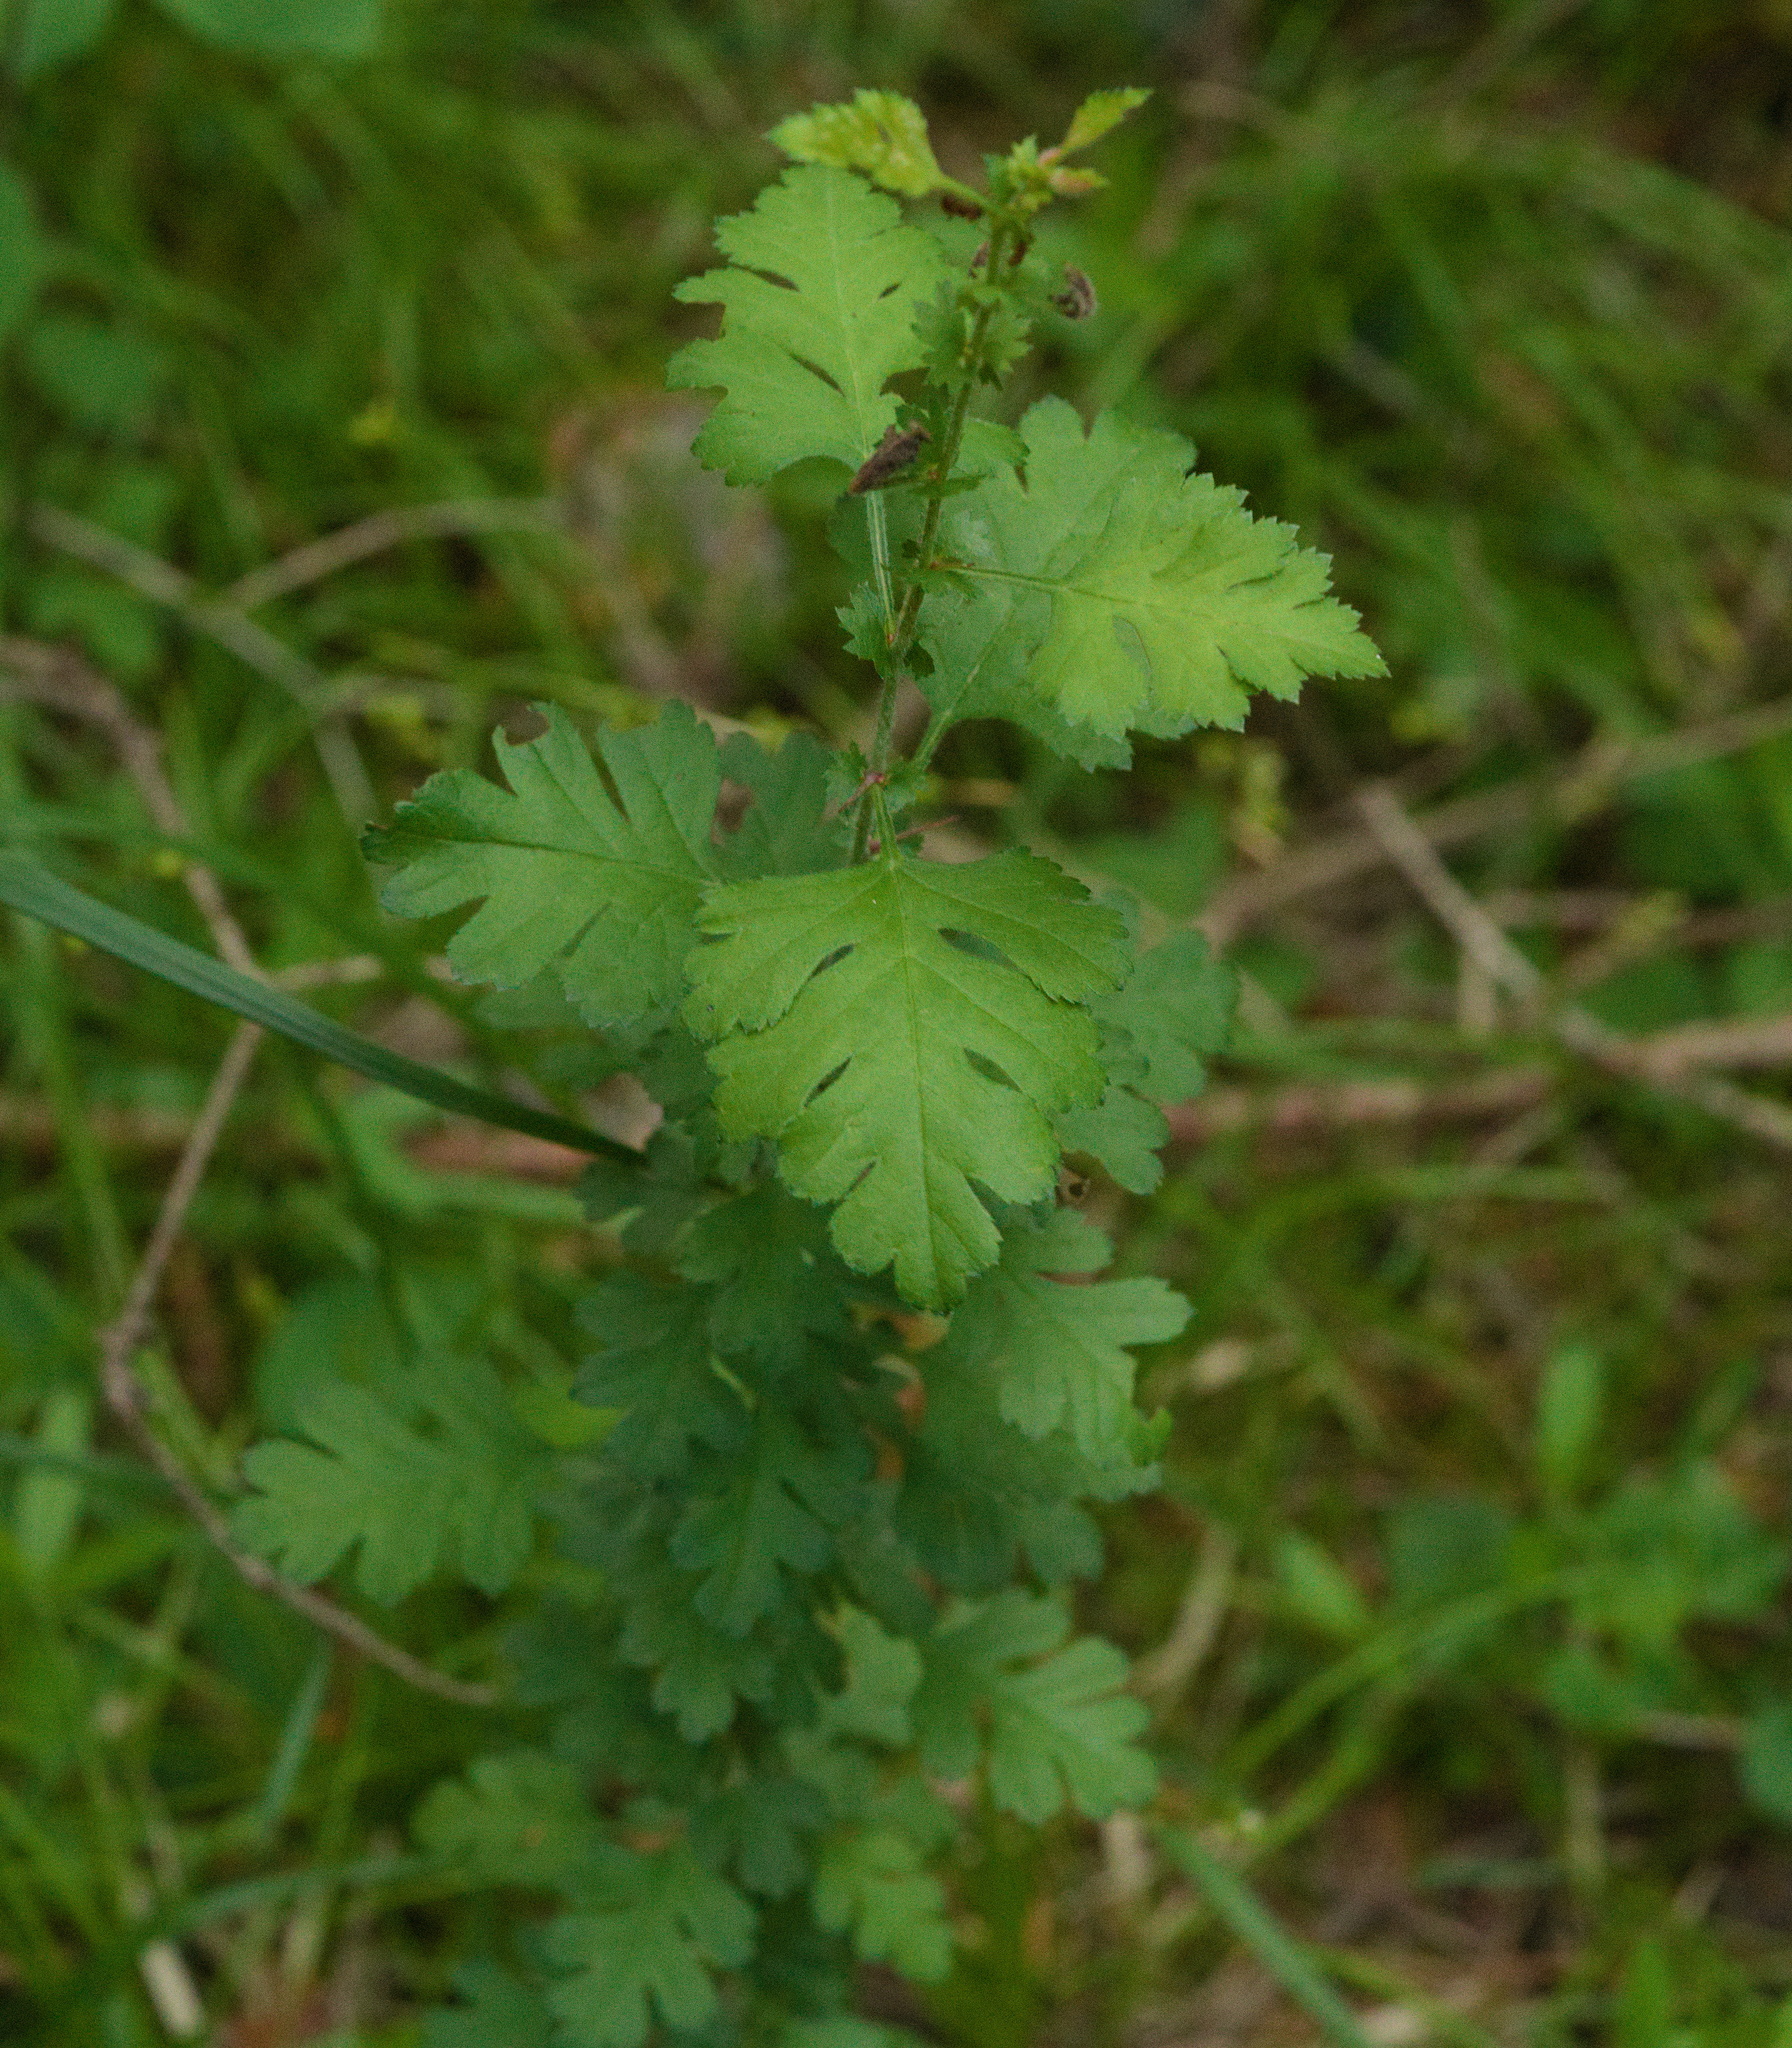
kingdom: Plantae
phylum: Tracheophyta
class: Magnoliopsida
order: Rosales
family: Rosaceae
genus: Crataegus
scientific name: Crataegus monogyna
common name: Hawthorn
